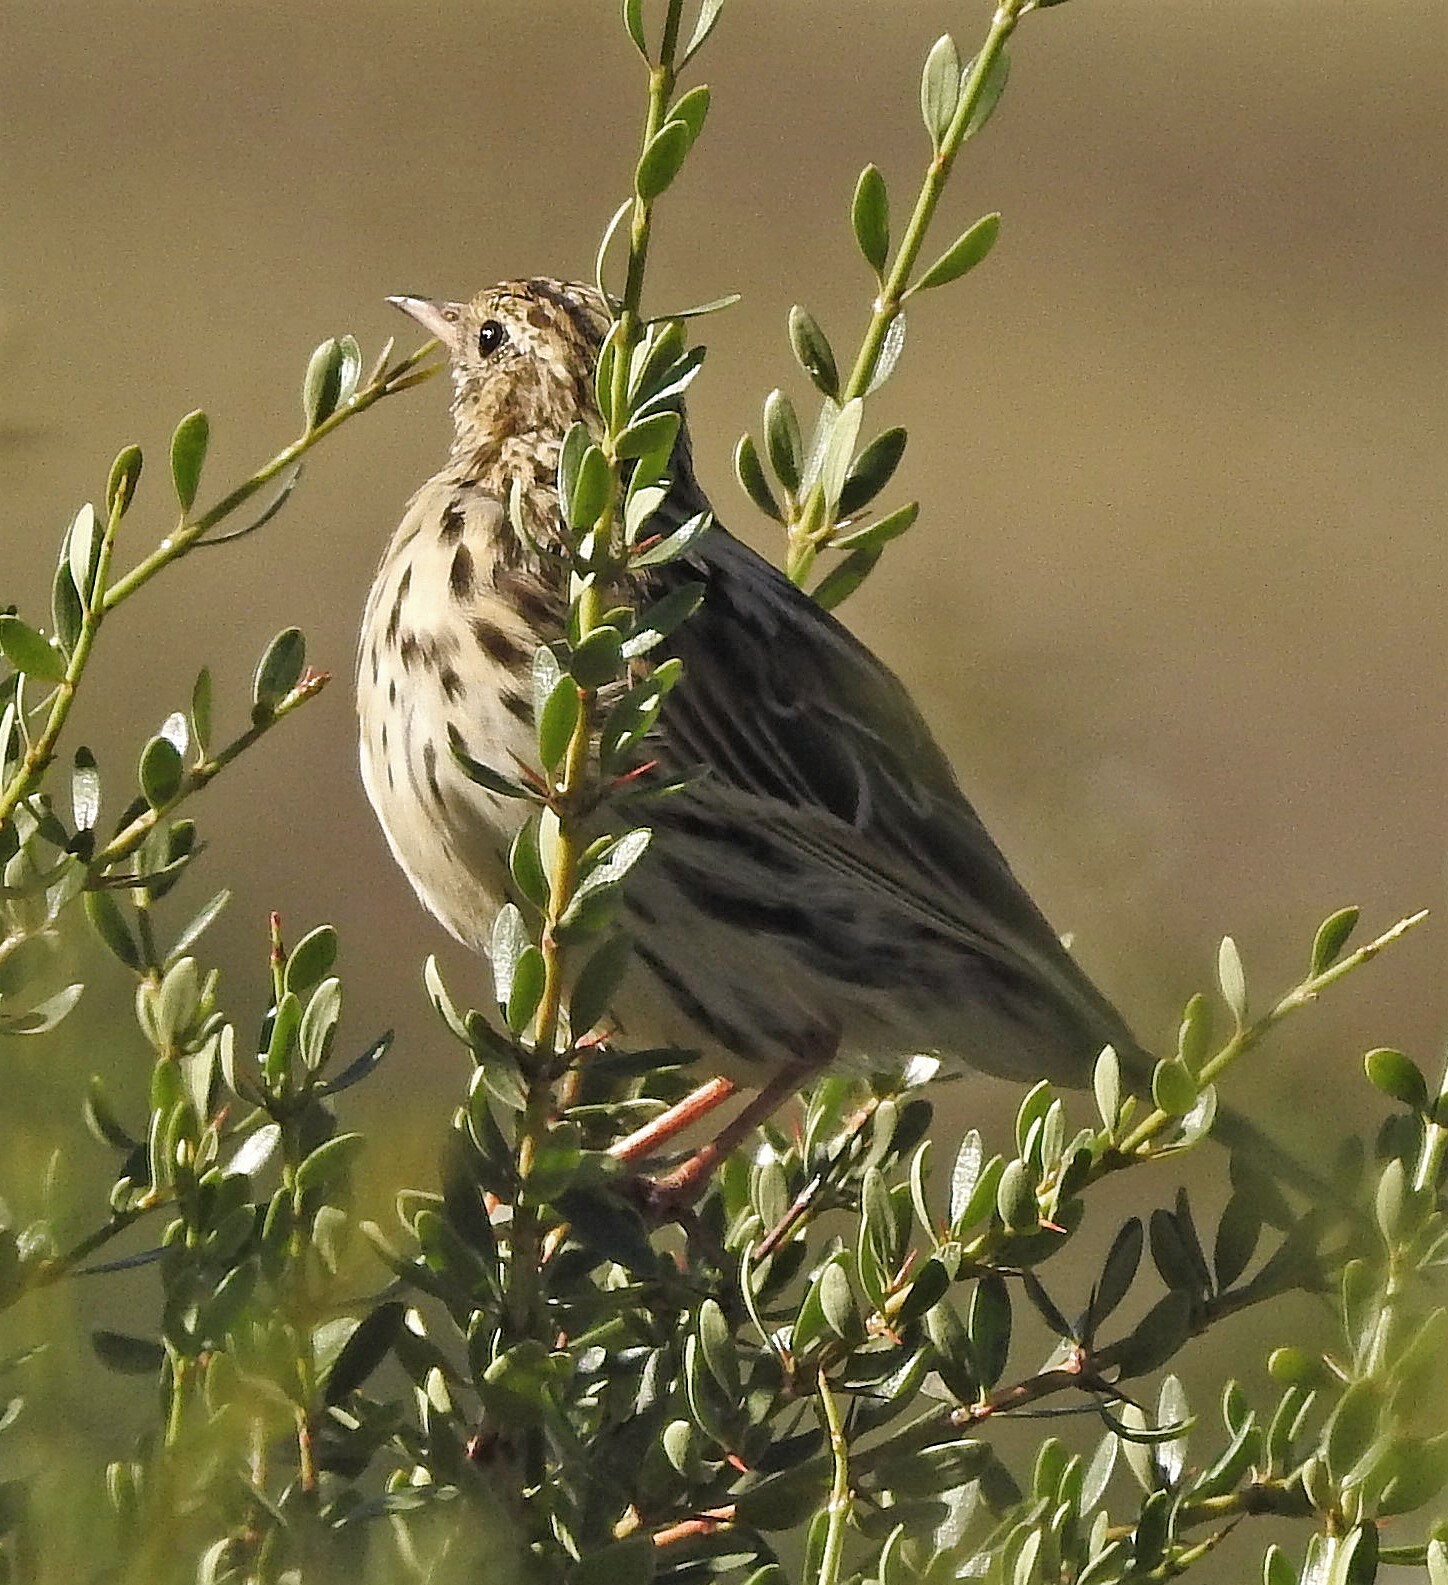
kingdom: Animalia
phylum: Chordata
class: Aves
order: Passeriformes
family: Motacillidae
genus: Anthus
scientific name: Anthus correndera
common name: Correndera pipit
